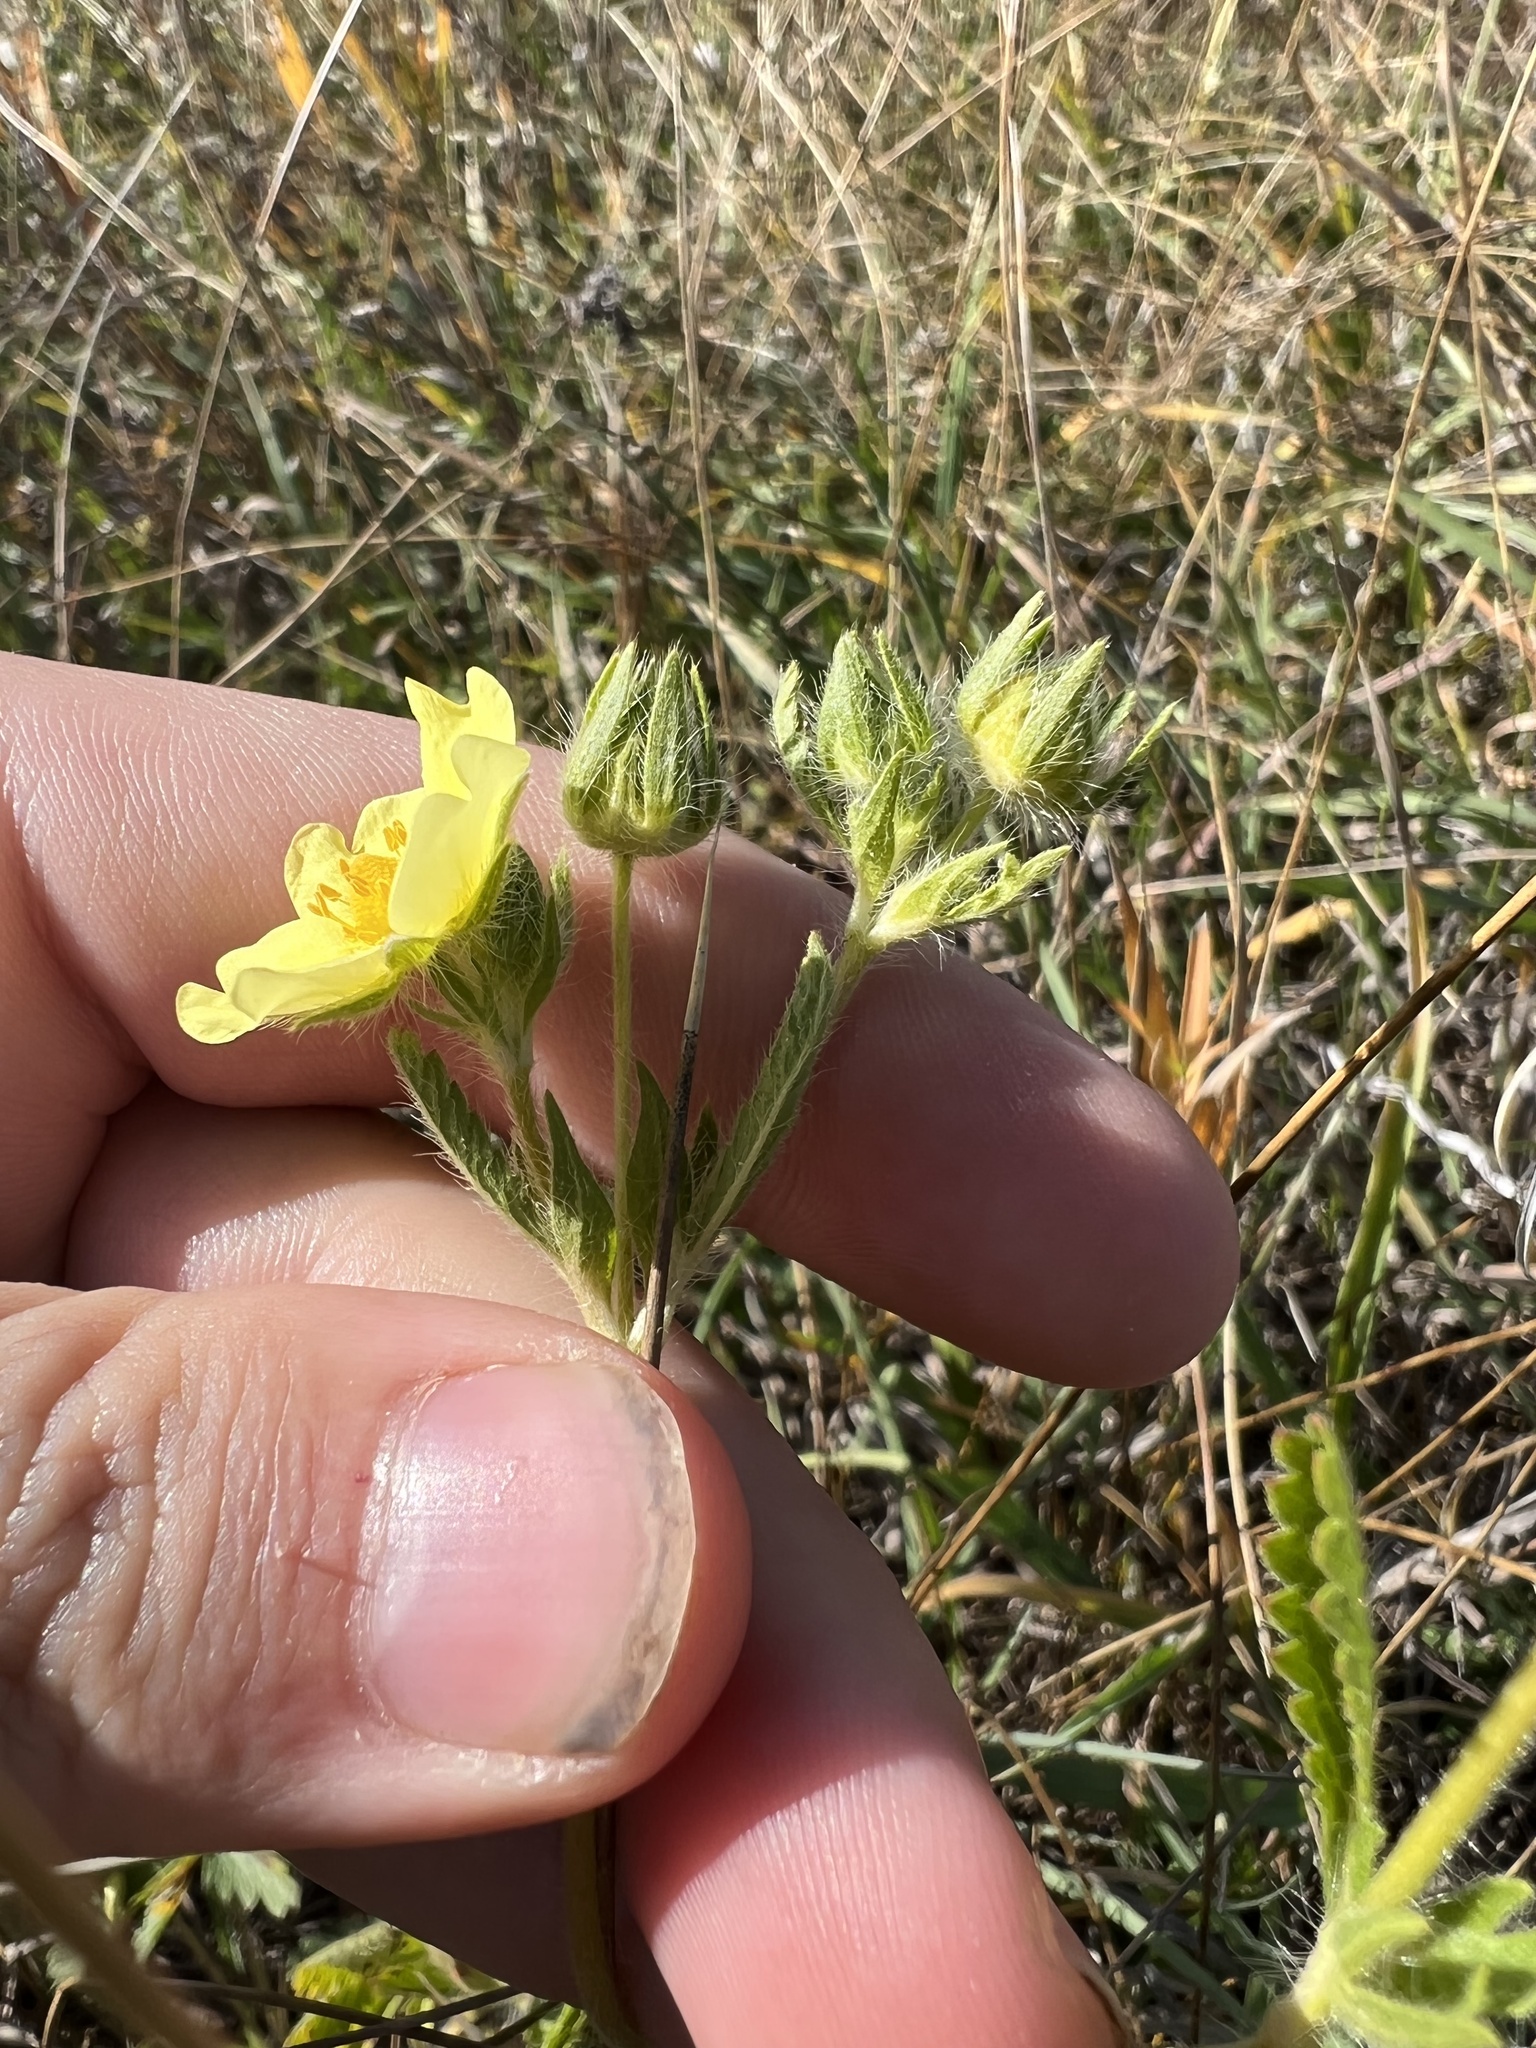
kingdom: Plantae
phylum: Tracheophyta
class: Magnoliopsida
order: Rosales
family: Rosaceae
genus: Potentilla
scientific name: Potentilla recta
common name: Sulphur cinquefoil
